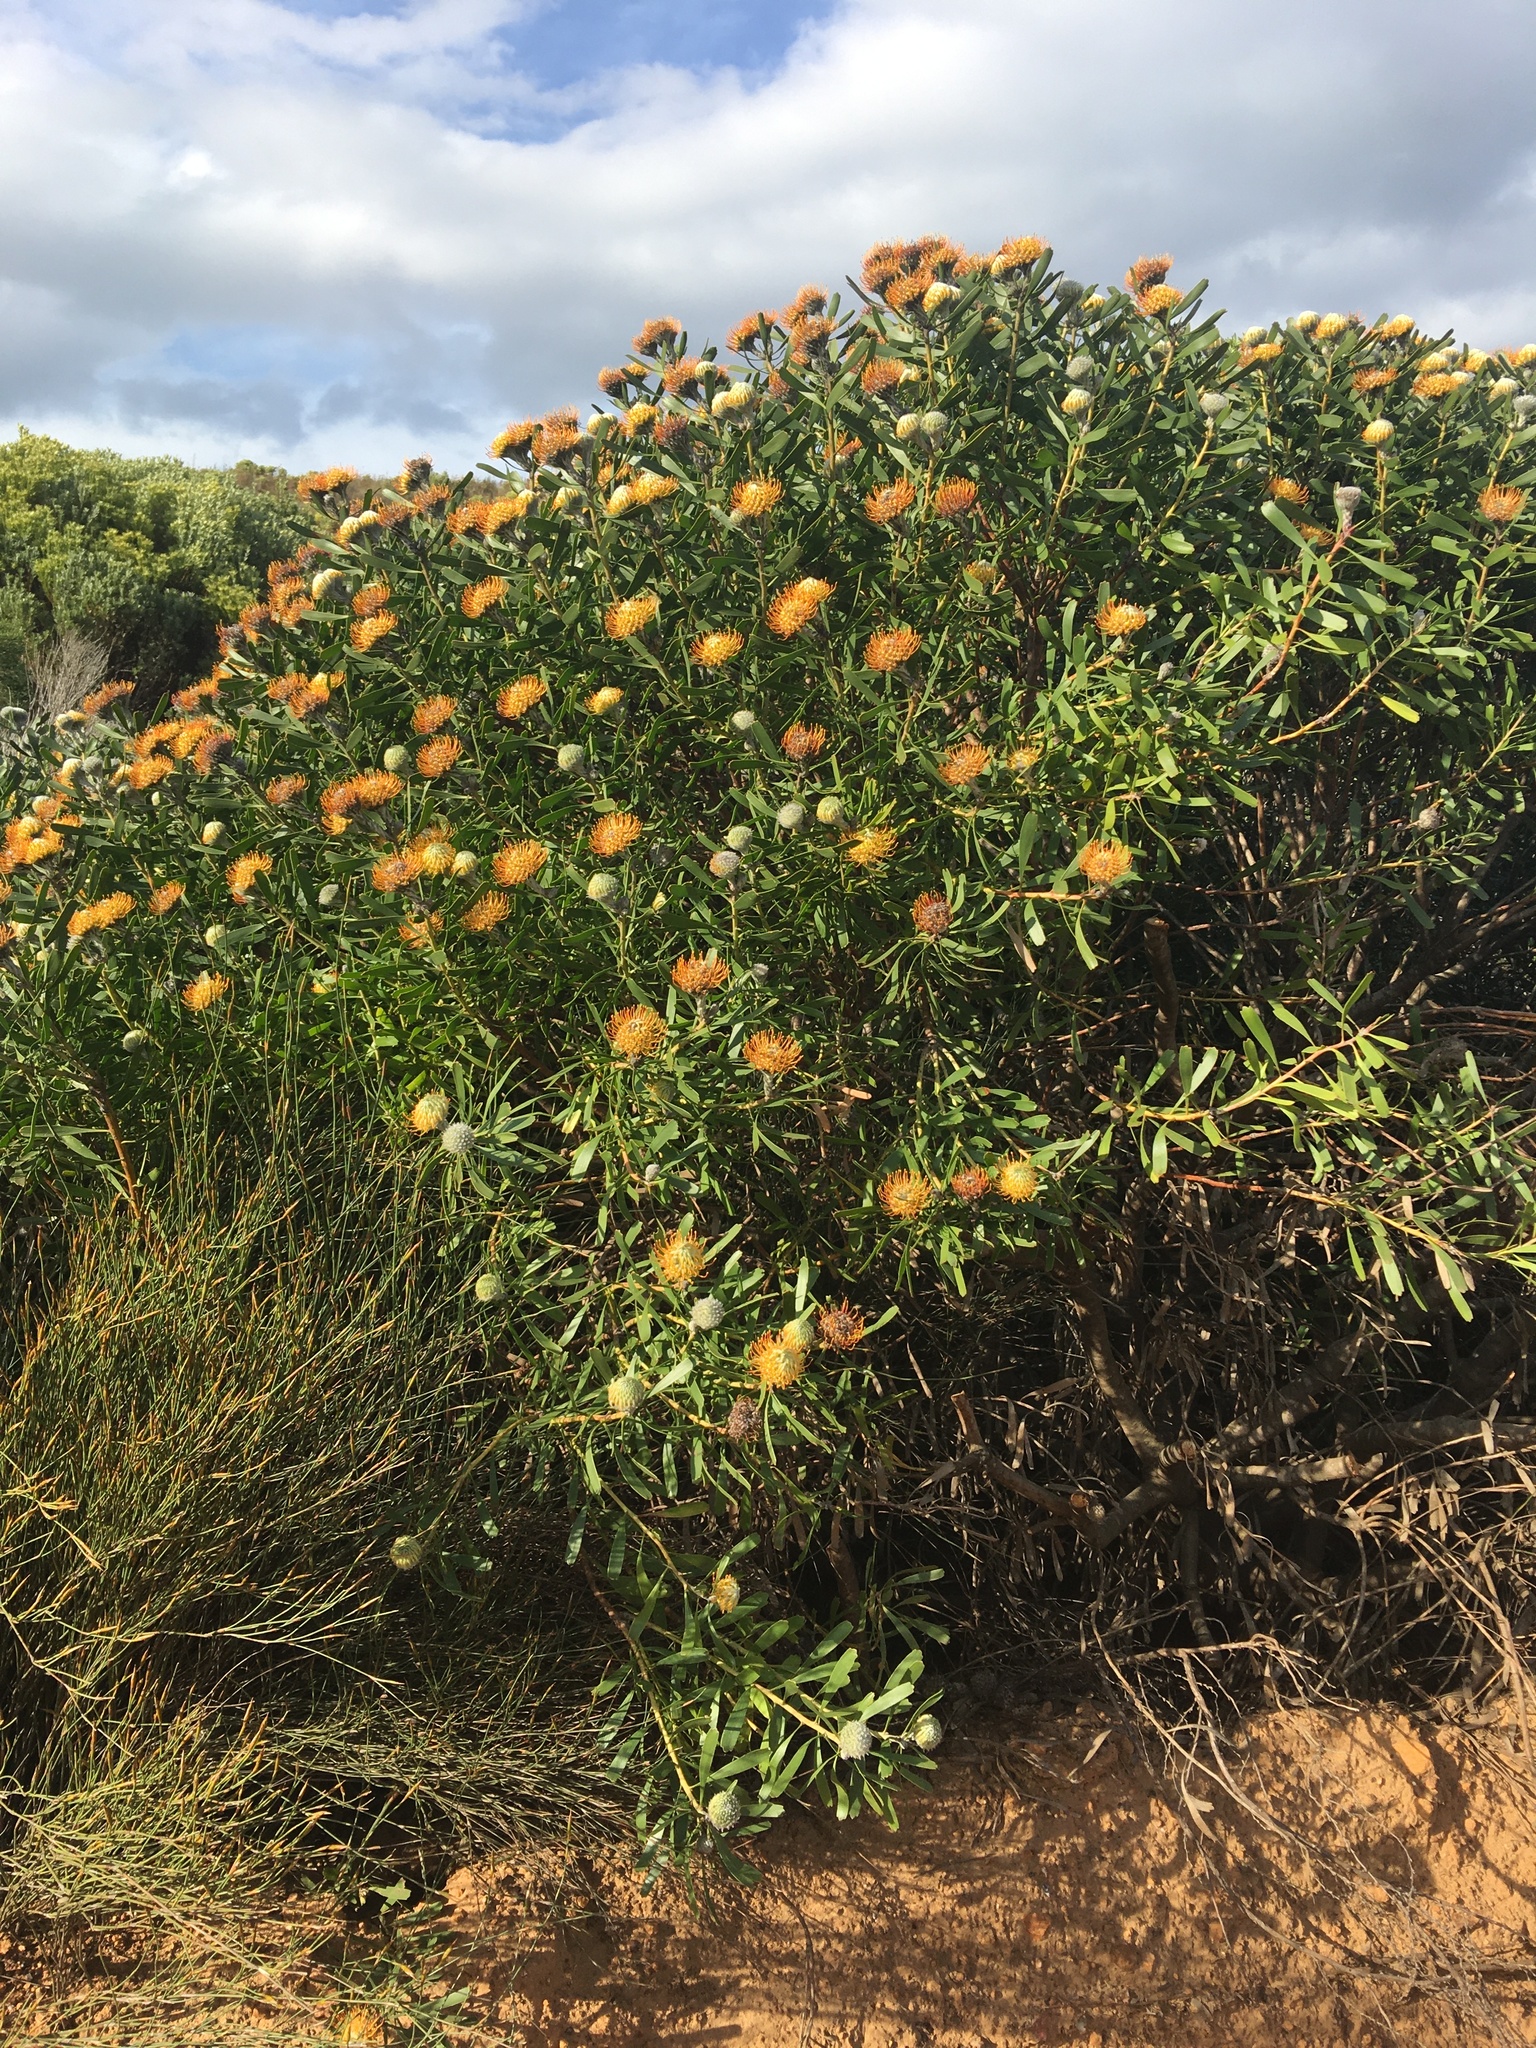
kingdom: Plantae
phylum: Tracheophyta
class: Magnoliopsida
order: Proteales
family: Proteaceae
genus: Leucospermum
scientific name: Leucospermum truncatum
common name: Limestone pincushion
